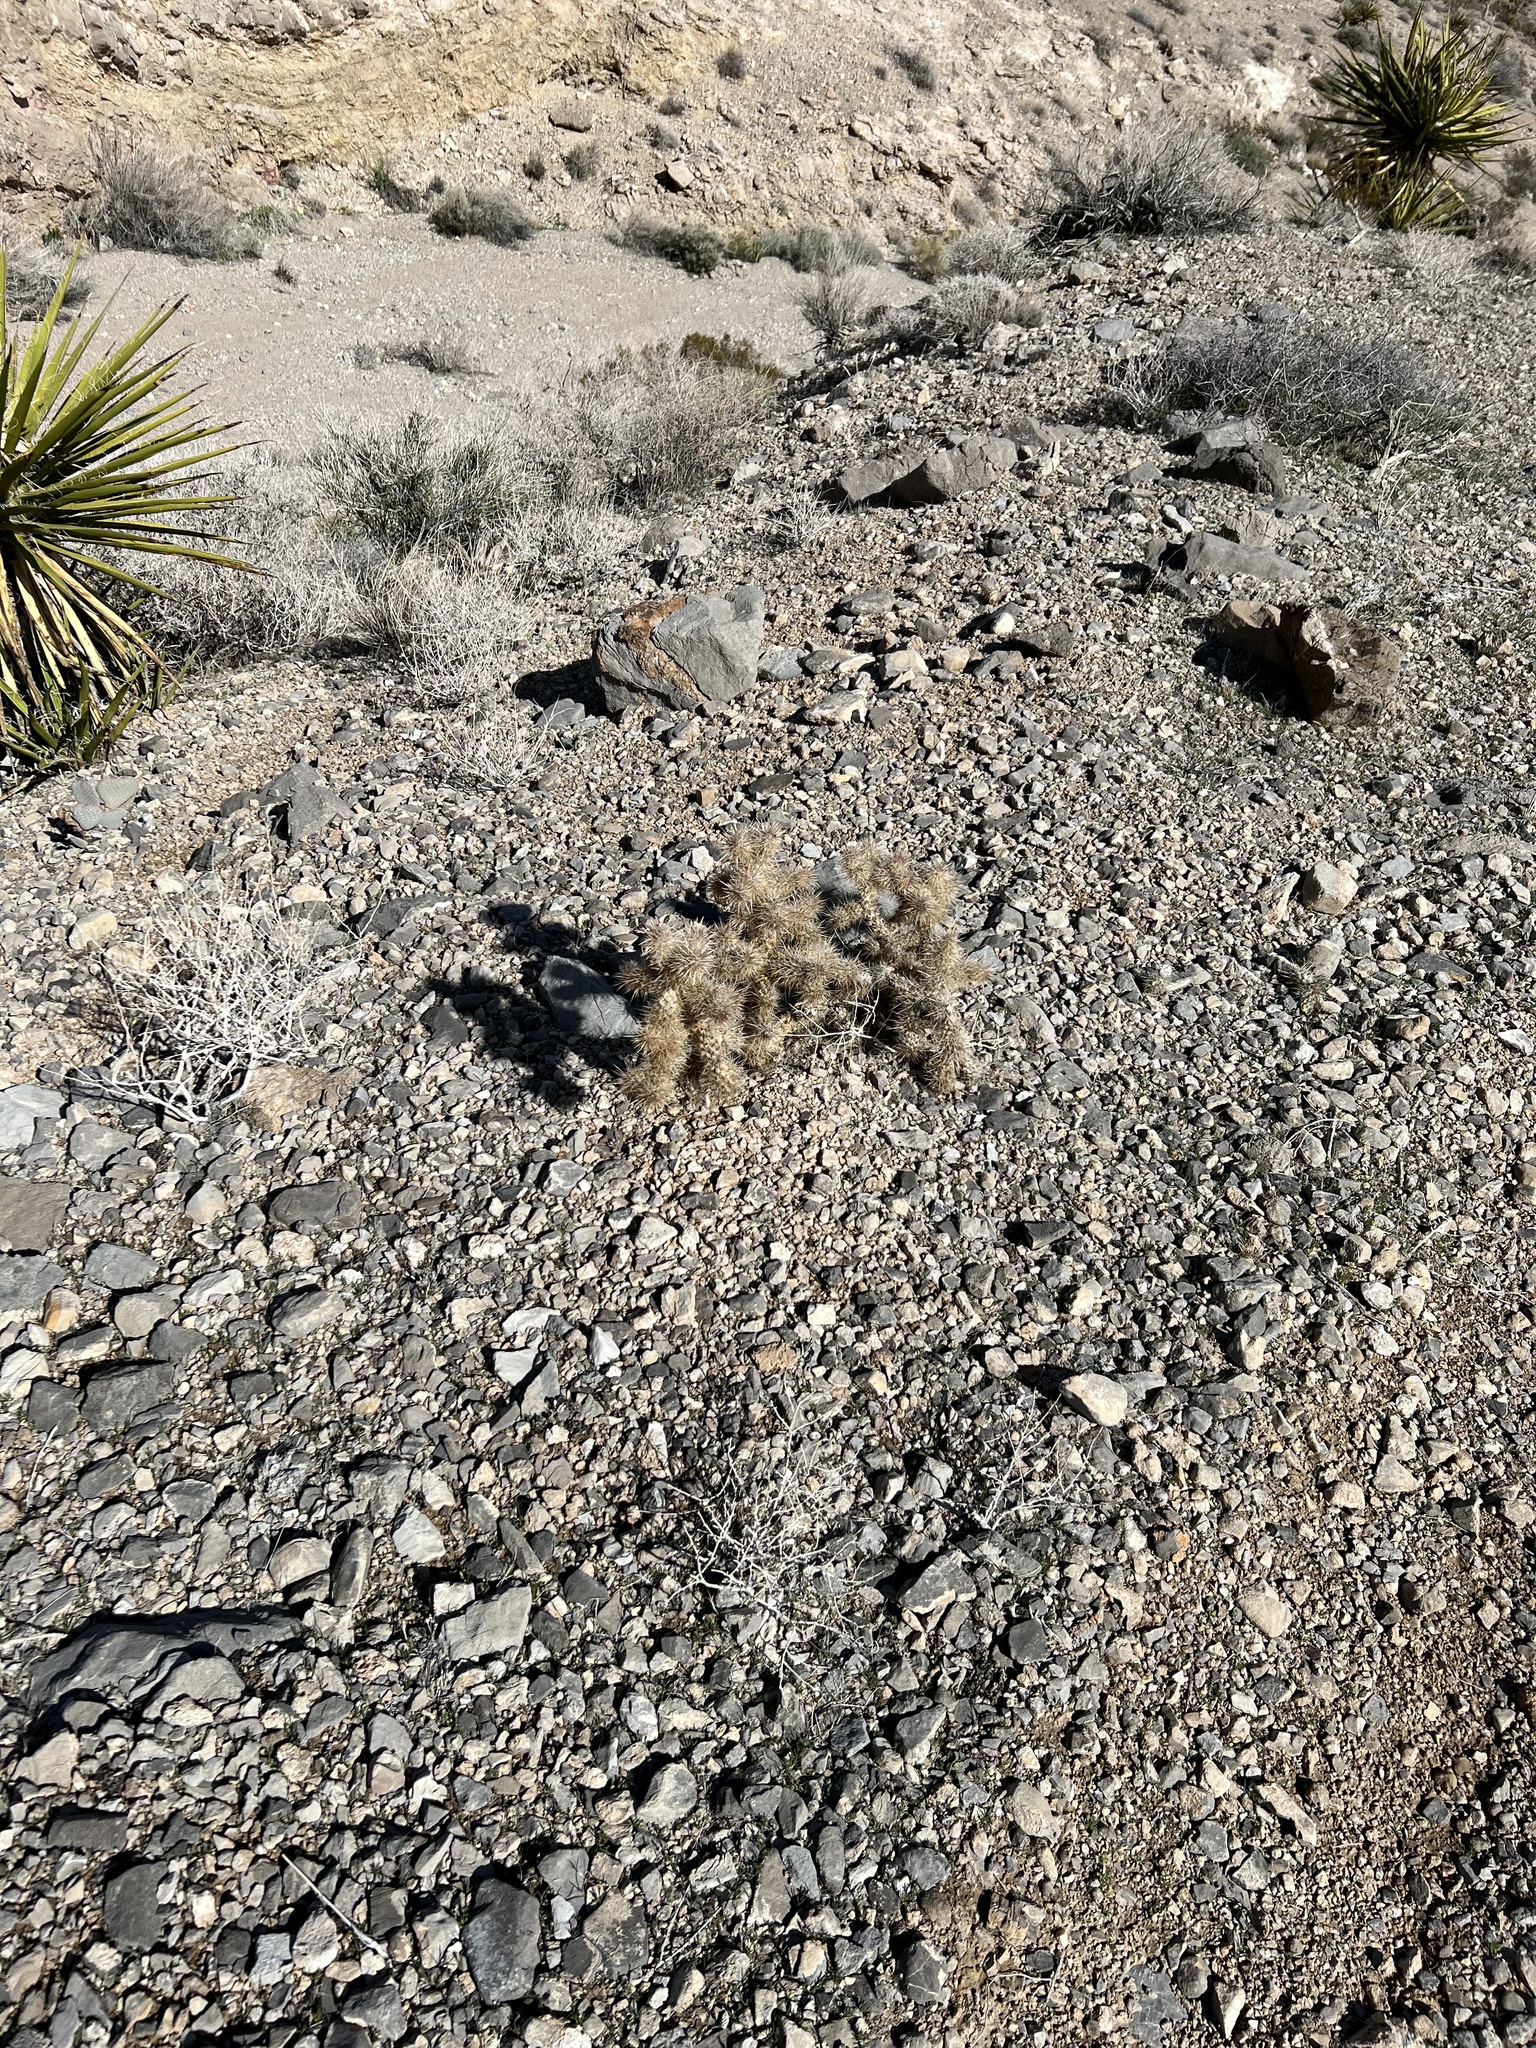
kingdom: Plantae
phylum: Tracheophyta
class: Magnoliopsida
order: Caryophyllales
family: Cactaceae
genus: Cylindropuntia
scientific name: Cylindropuntia echinocarpa
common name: Ground cholla
